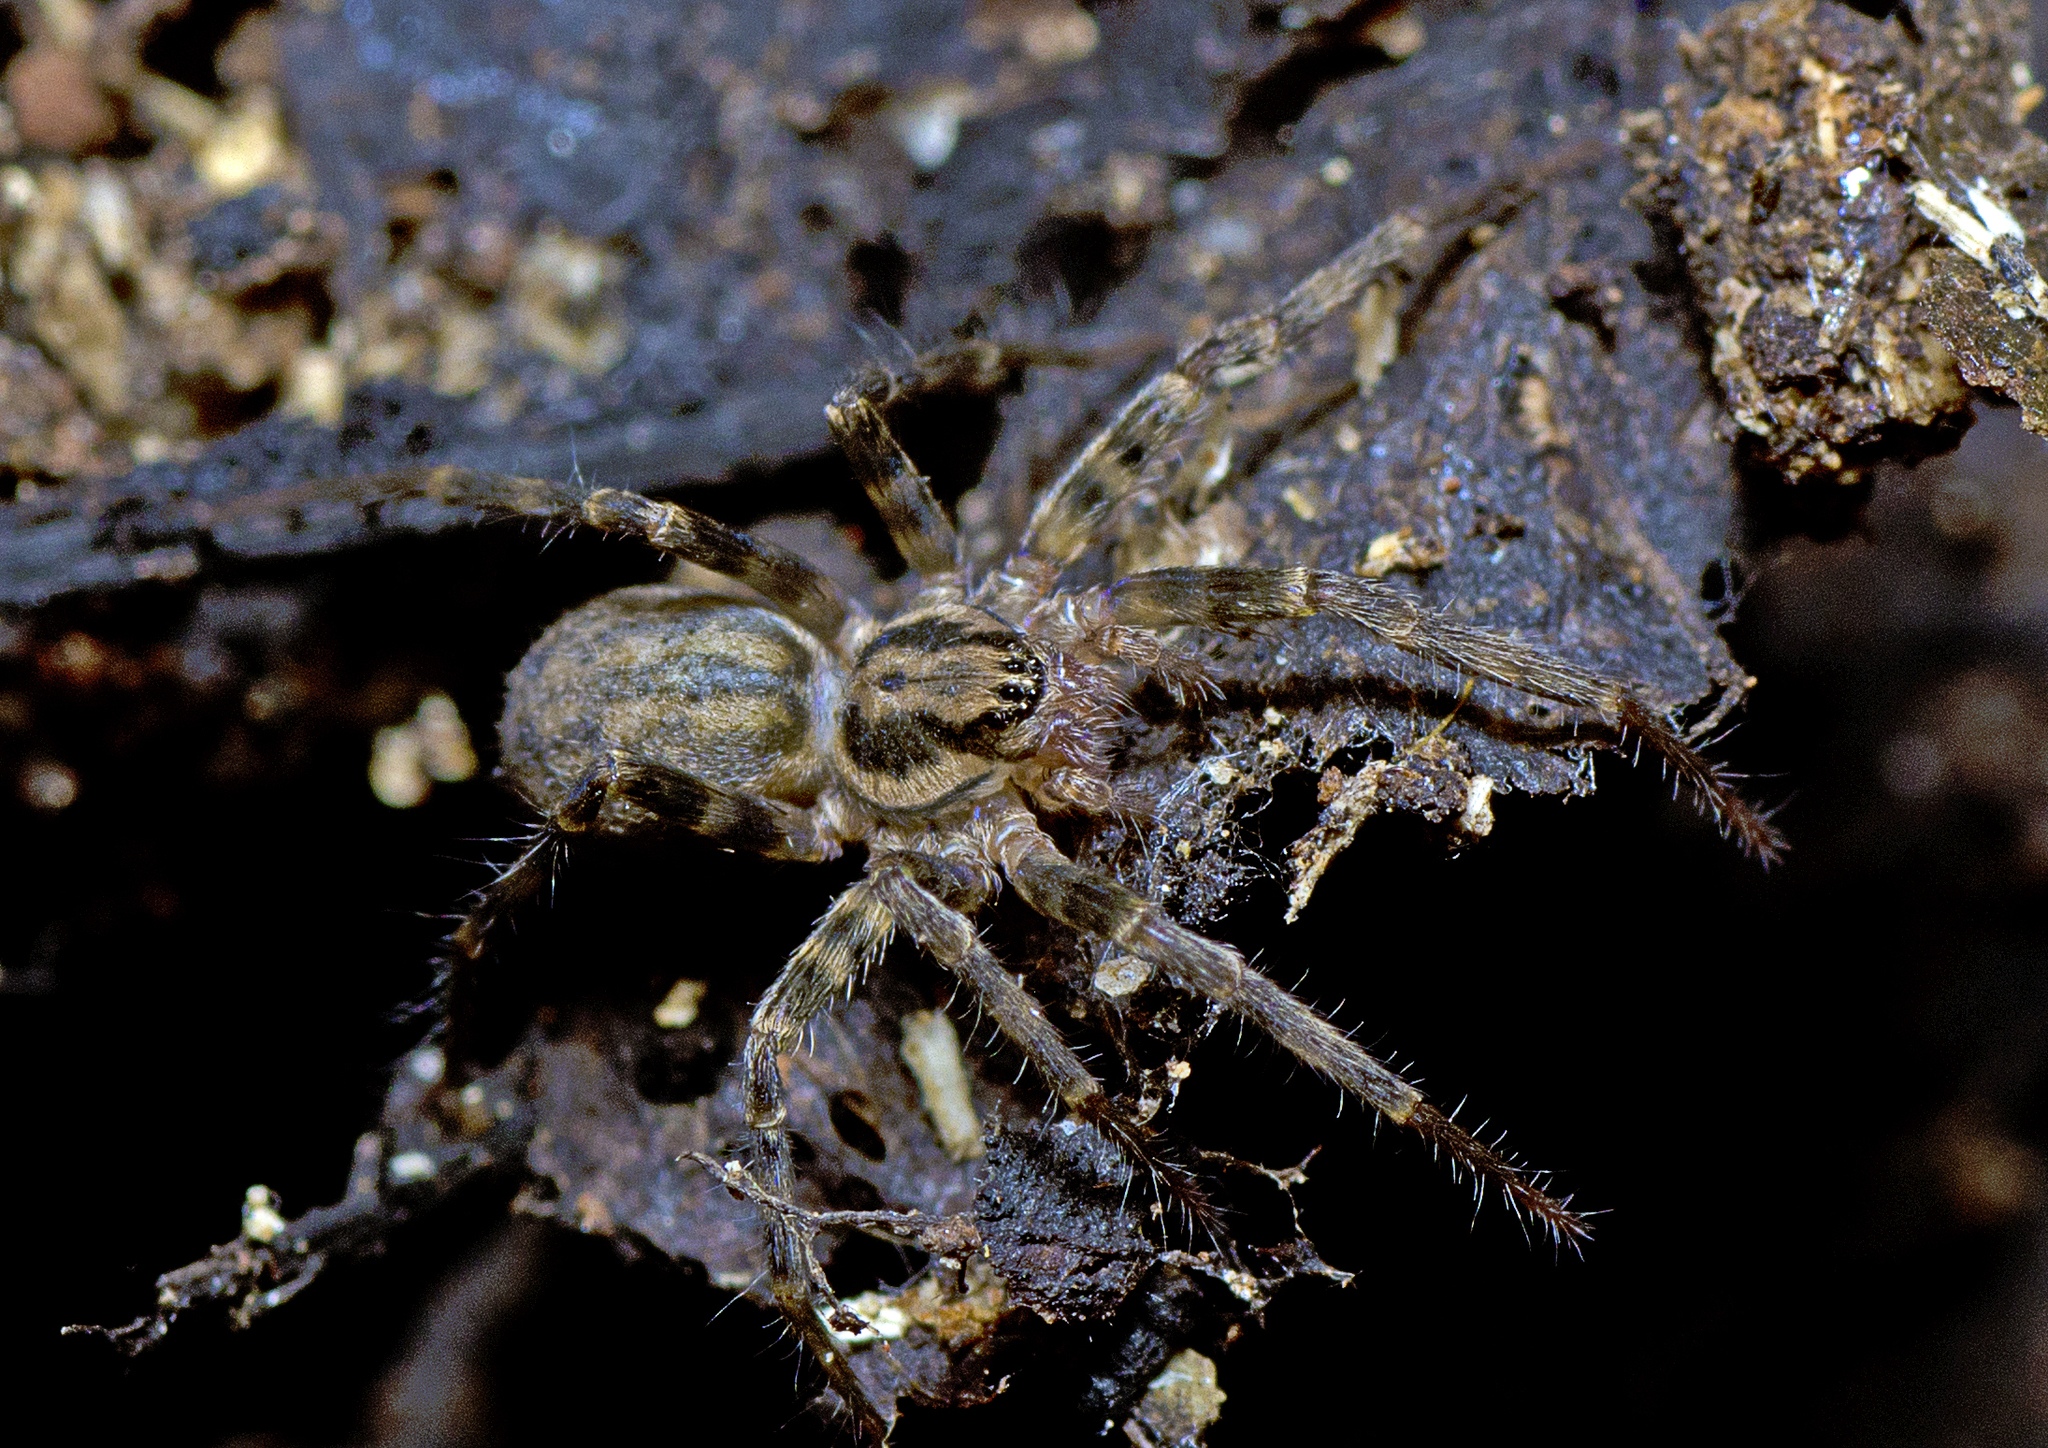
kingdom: Animalia
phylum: Arthropoda
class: Arachnida
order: Araneae
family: Zoropsidae
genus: Austrotengella
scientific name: Austrotengella hackerae
